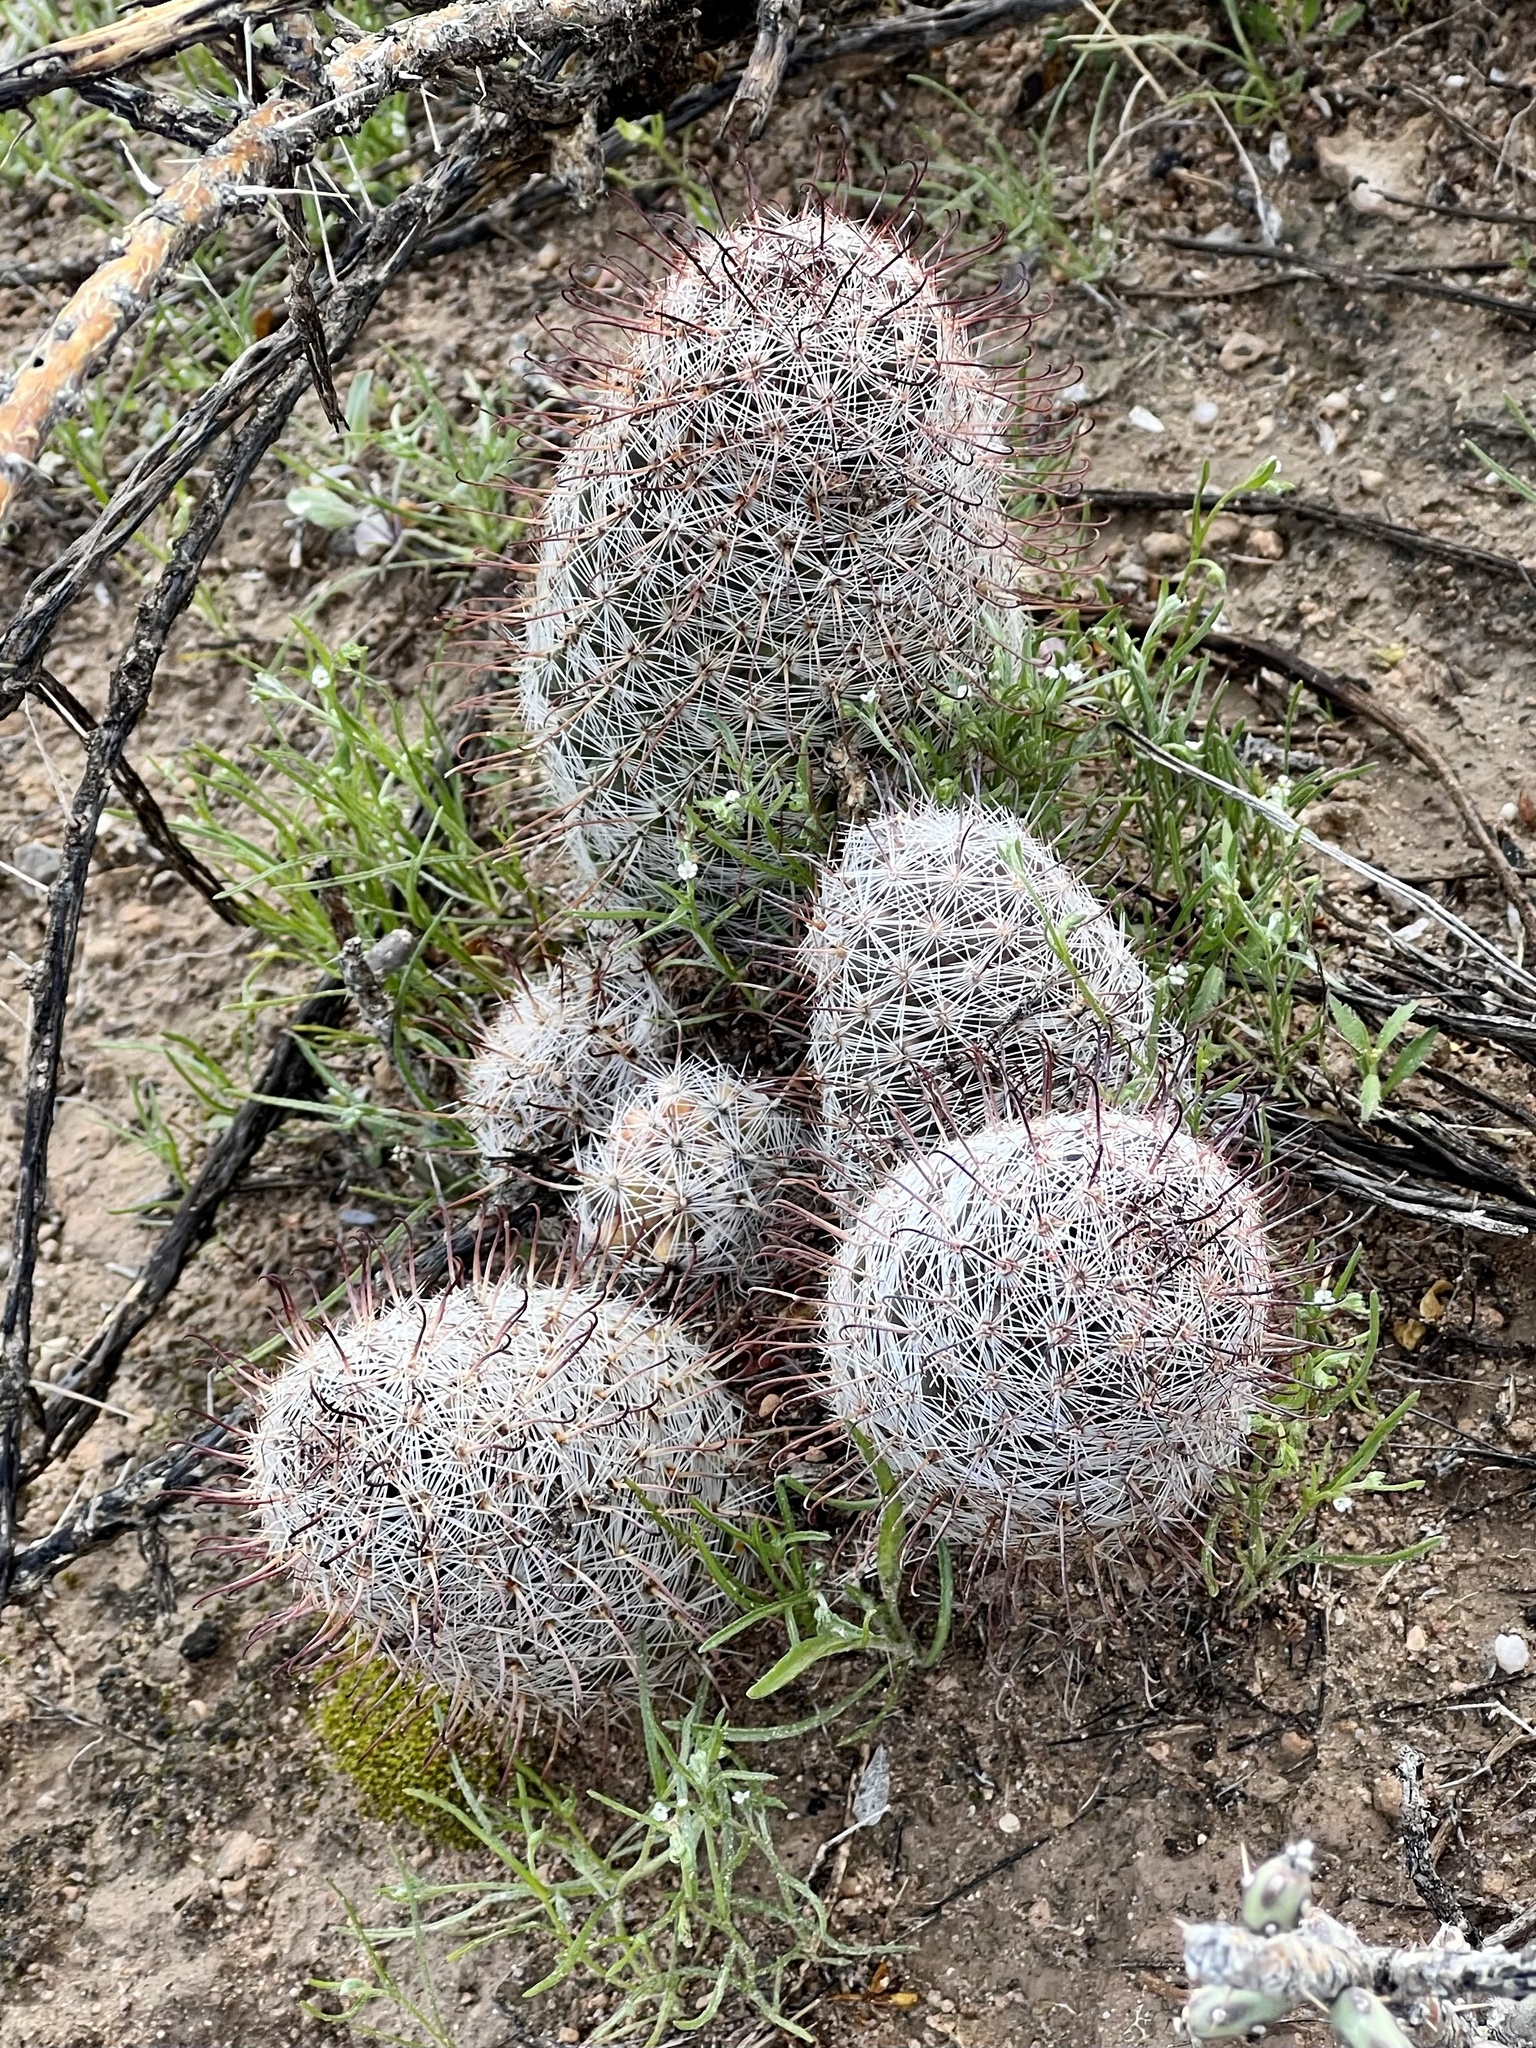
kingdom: Plantae
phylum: Tracheophyta
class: Magnoliopsida
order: Caryophyllales
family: Cactaceae
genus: Cochemiea
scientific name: Cochemiea grahamii
